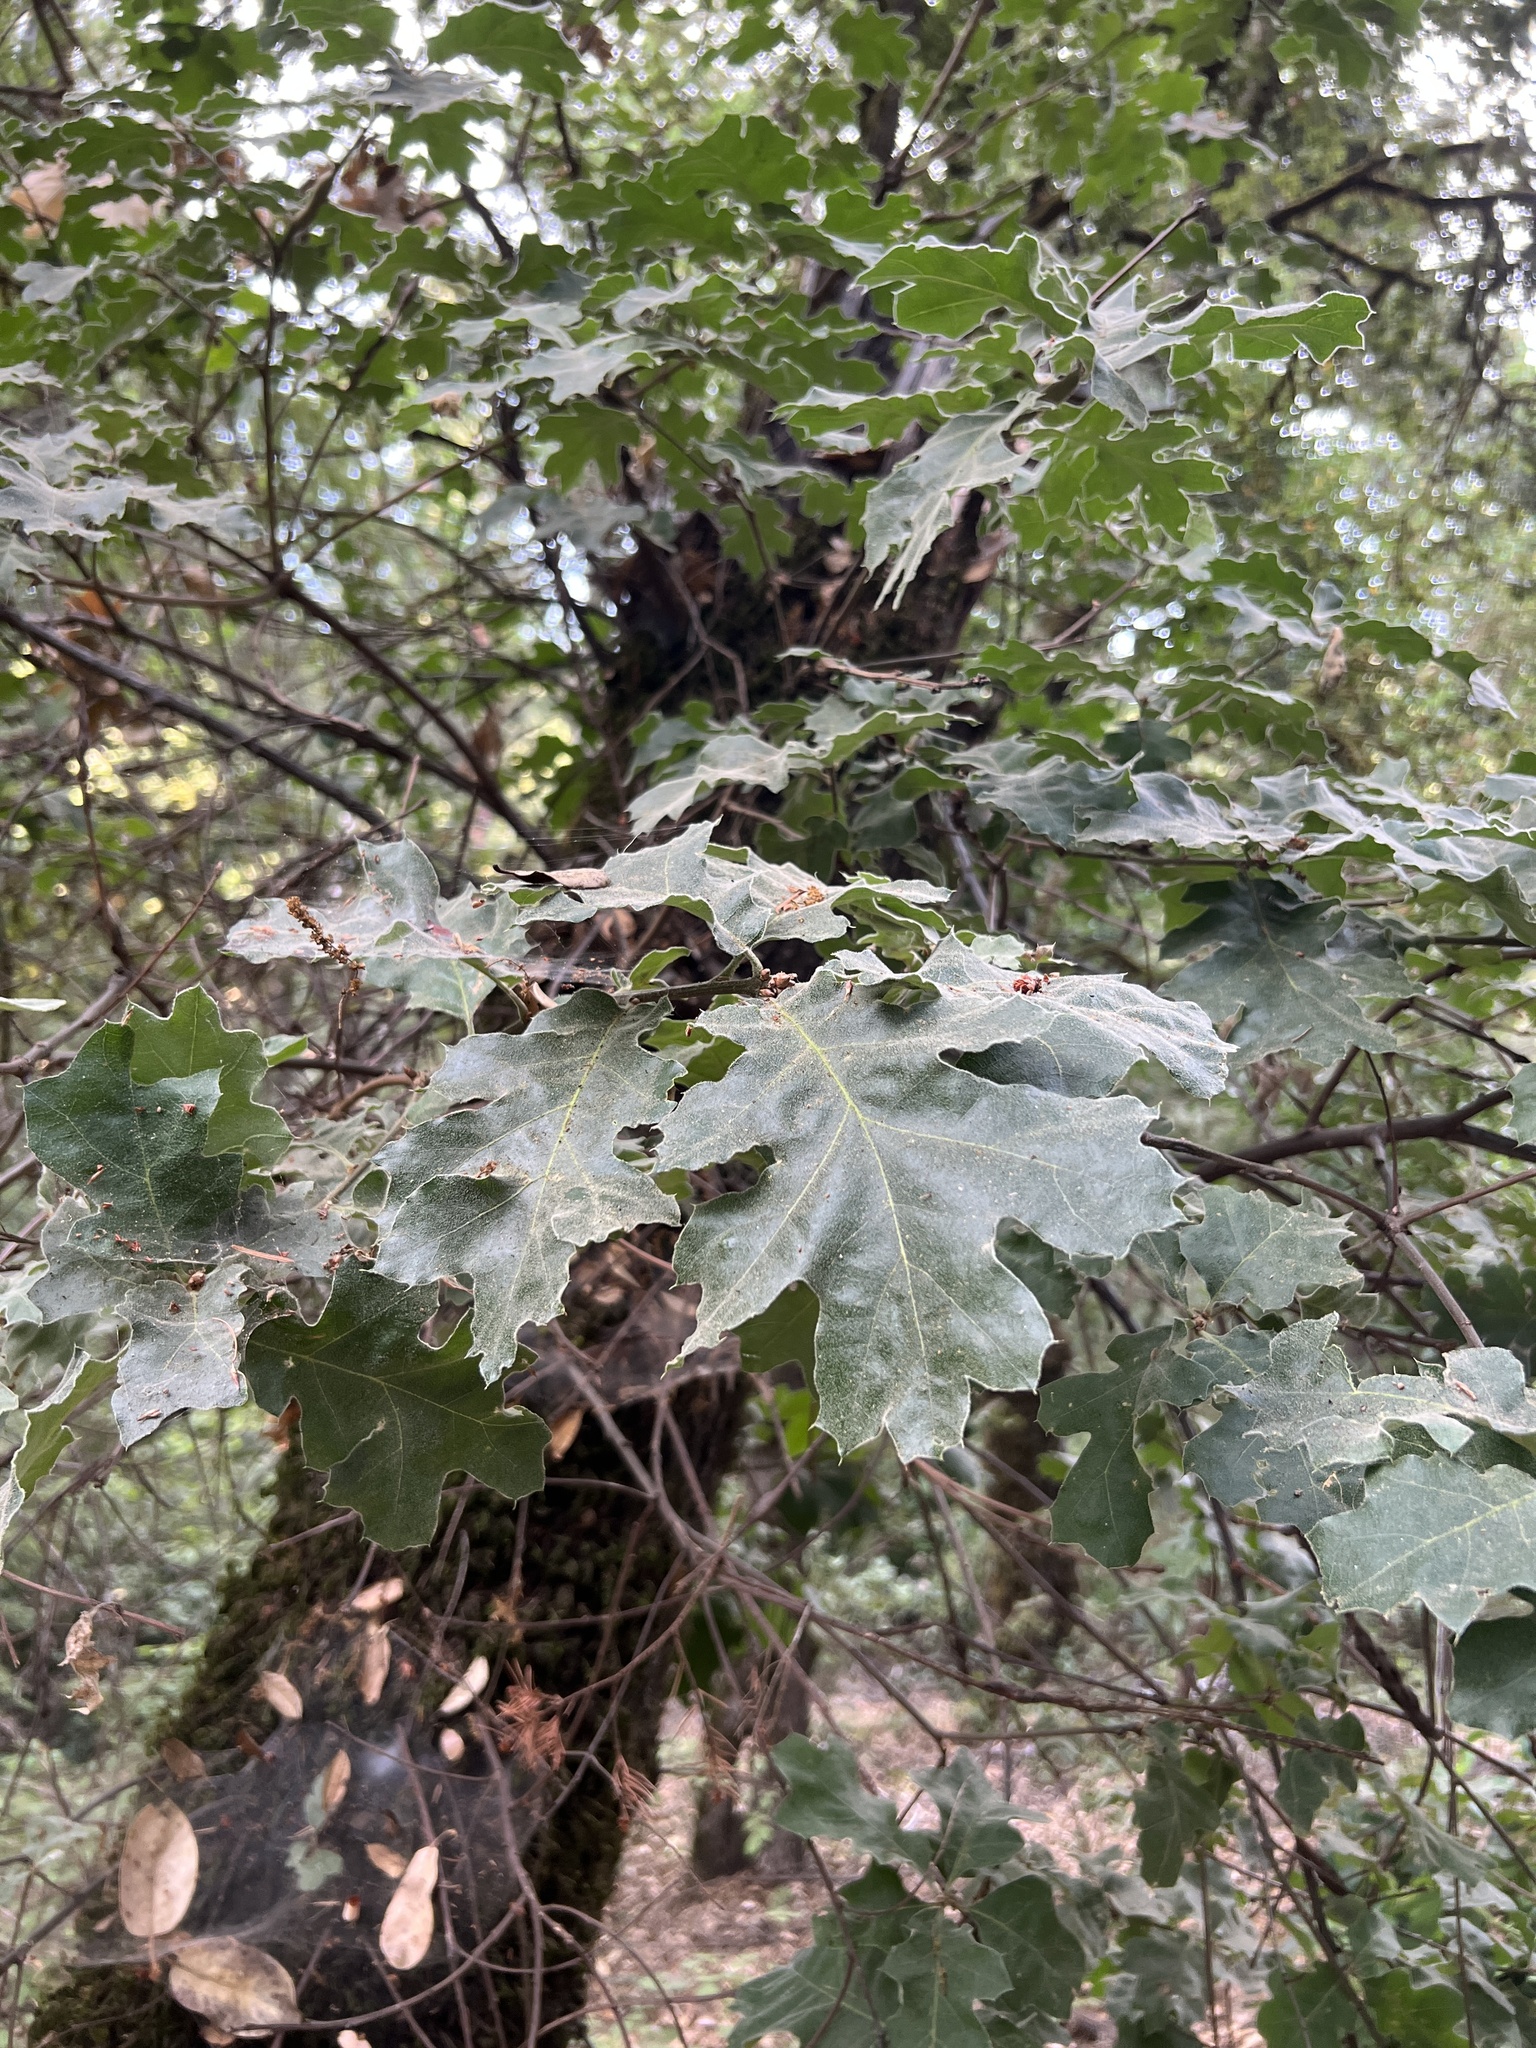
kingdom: Plantae
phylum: Tracheophyta
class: Magnoliopsida
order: Fagales
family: Fagaceae
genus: Quercus
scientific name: Quercus kelloggii
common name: California black oak
